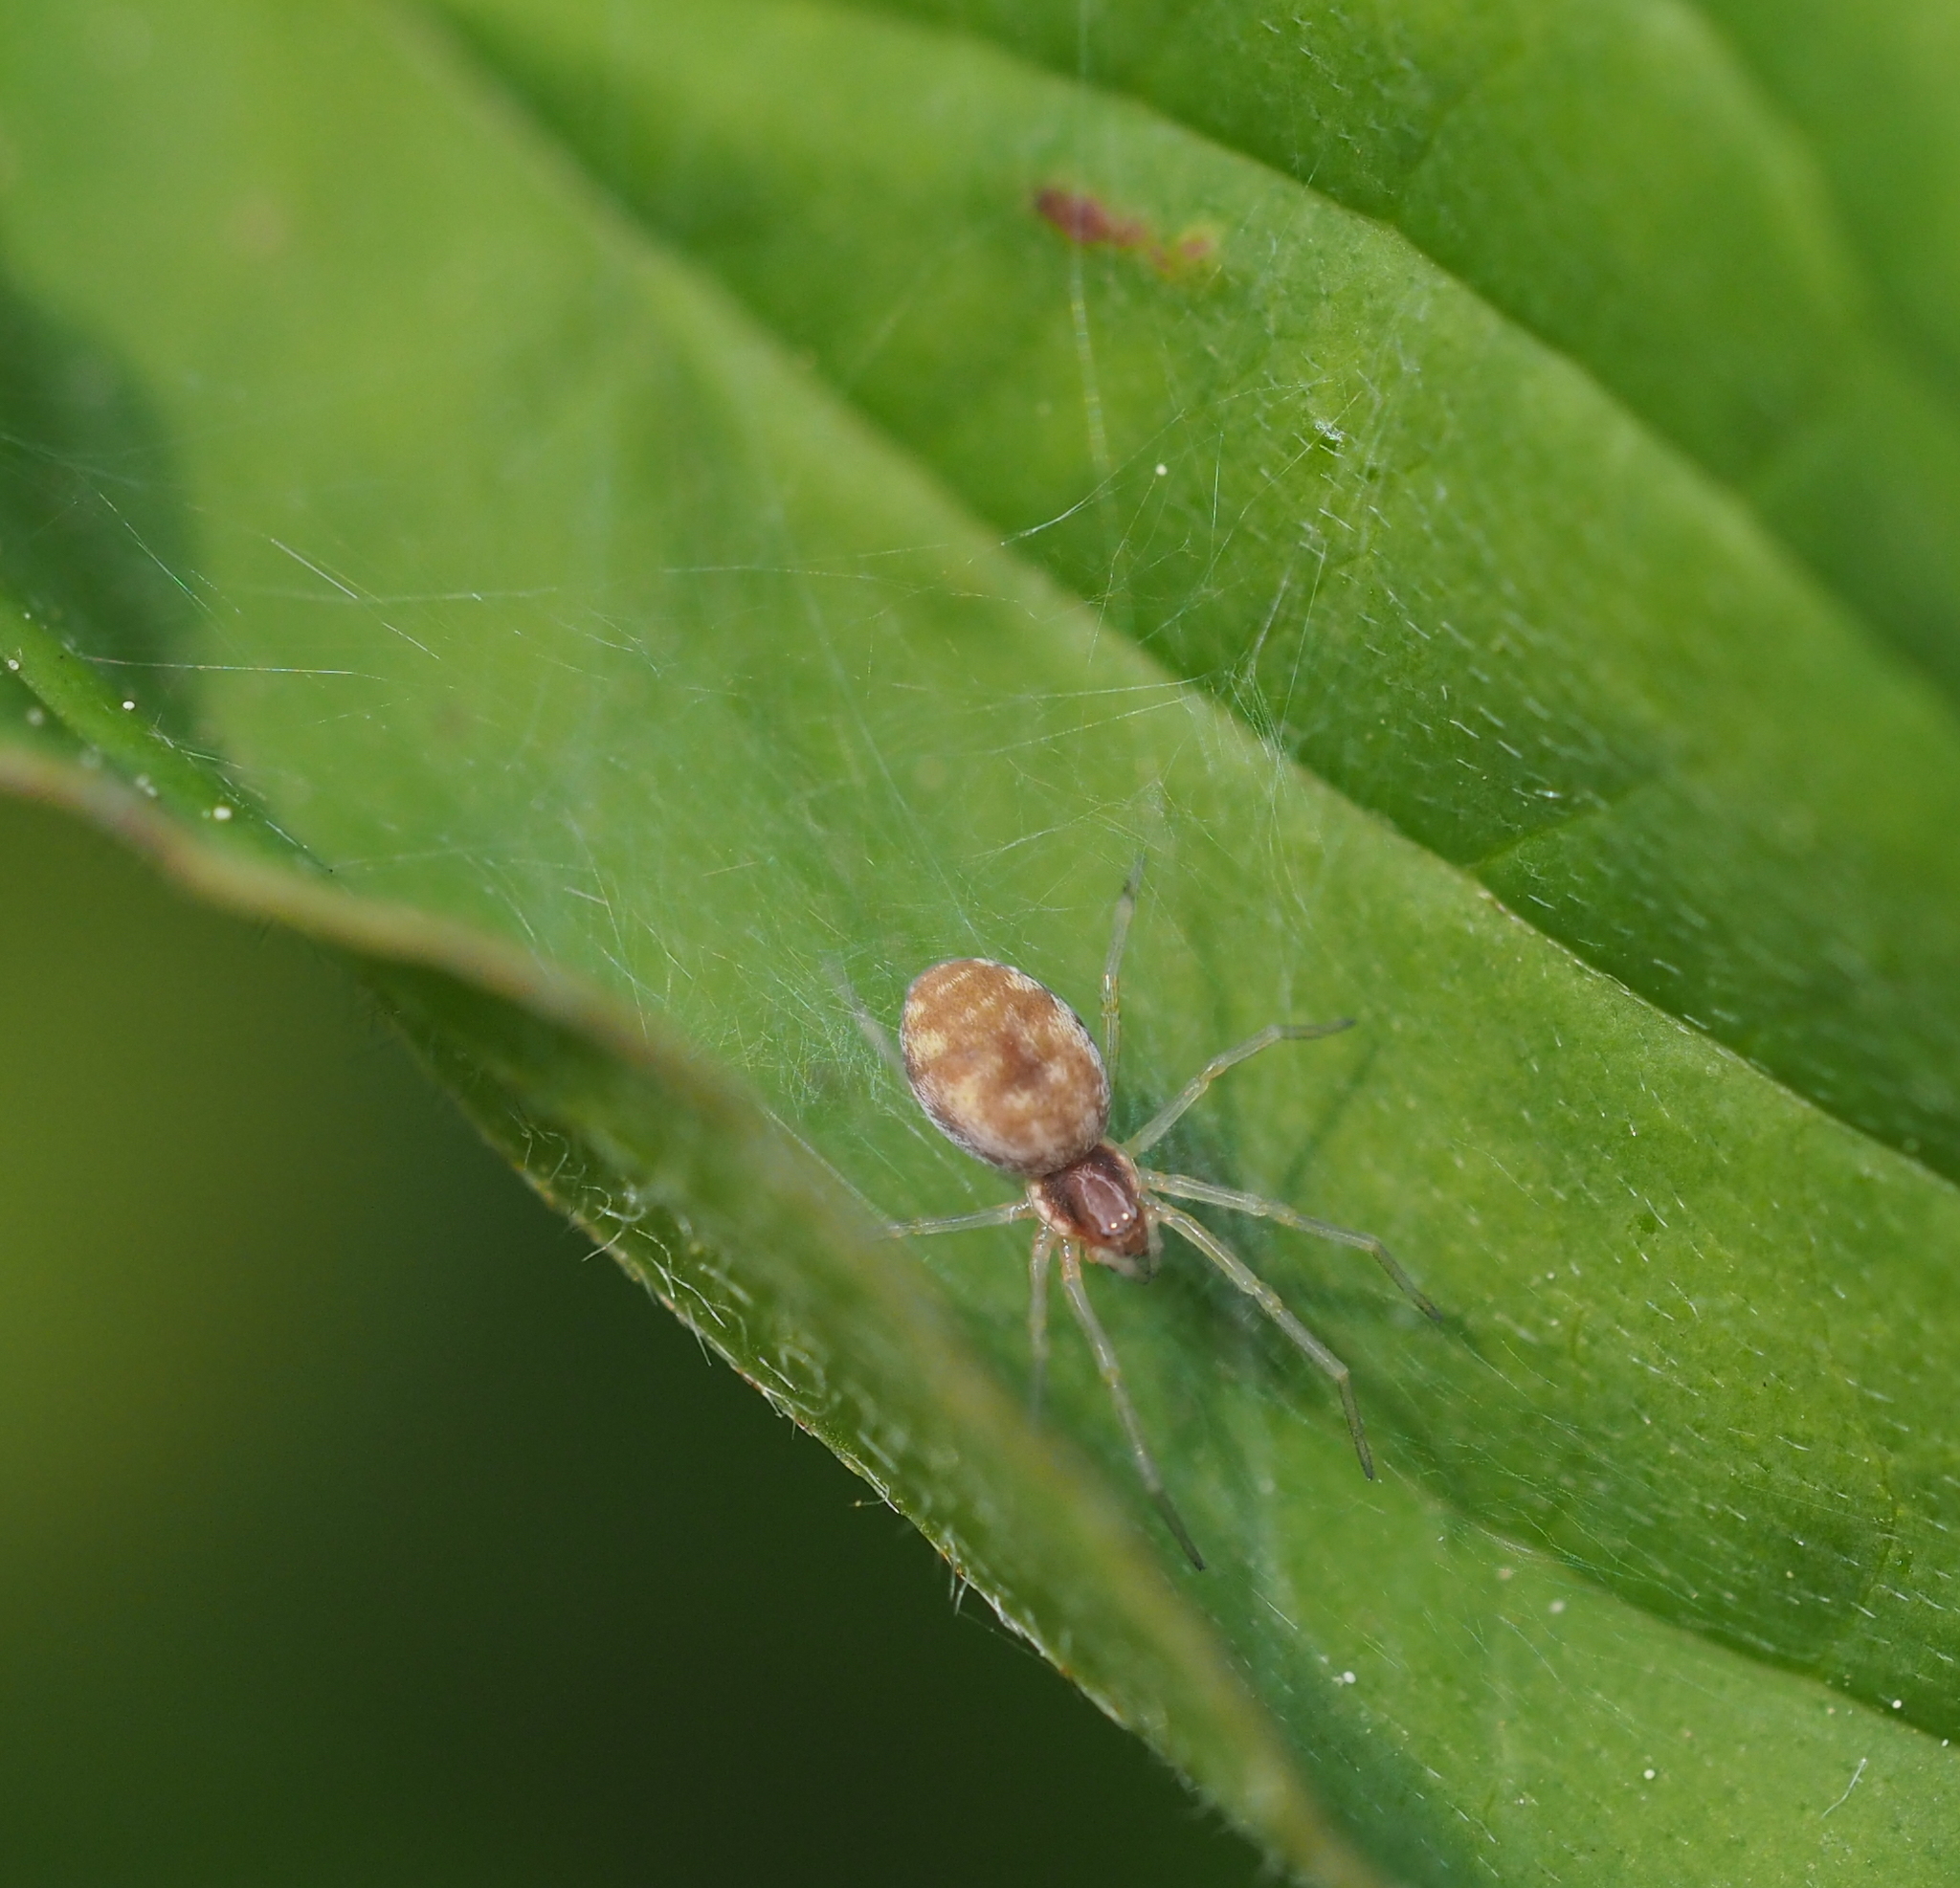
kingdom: Animalia
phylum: Arthropoda
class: Arachnida
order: Araneae
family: Dictynidae
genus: Nigma
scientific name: Nigma flavescens
